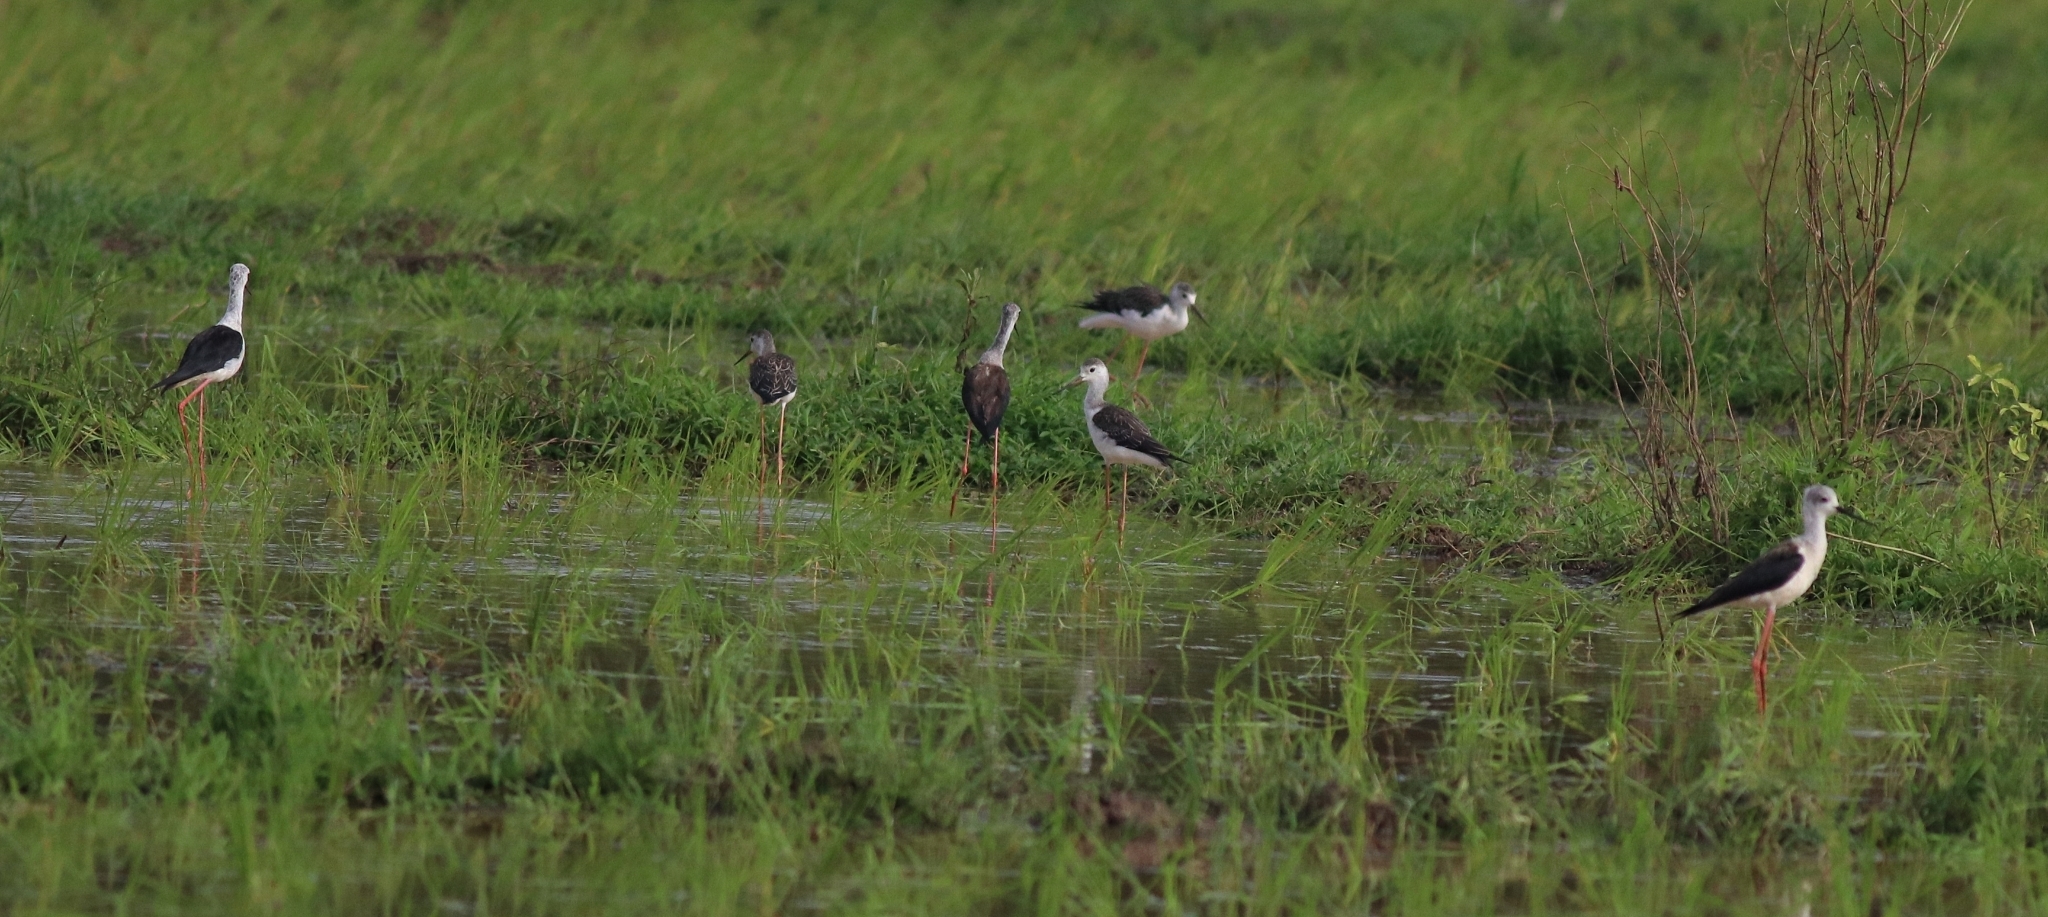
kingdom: Animalia
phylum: Chordata
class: Aves
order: Charadriiformes
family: Recurvirostridae
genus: Himantopus
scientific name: Himantopus himantopus
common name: Black-winged stilt
